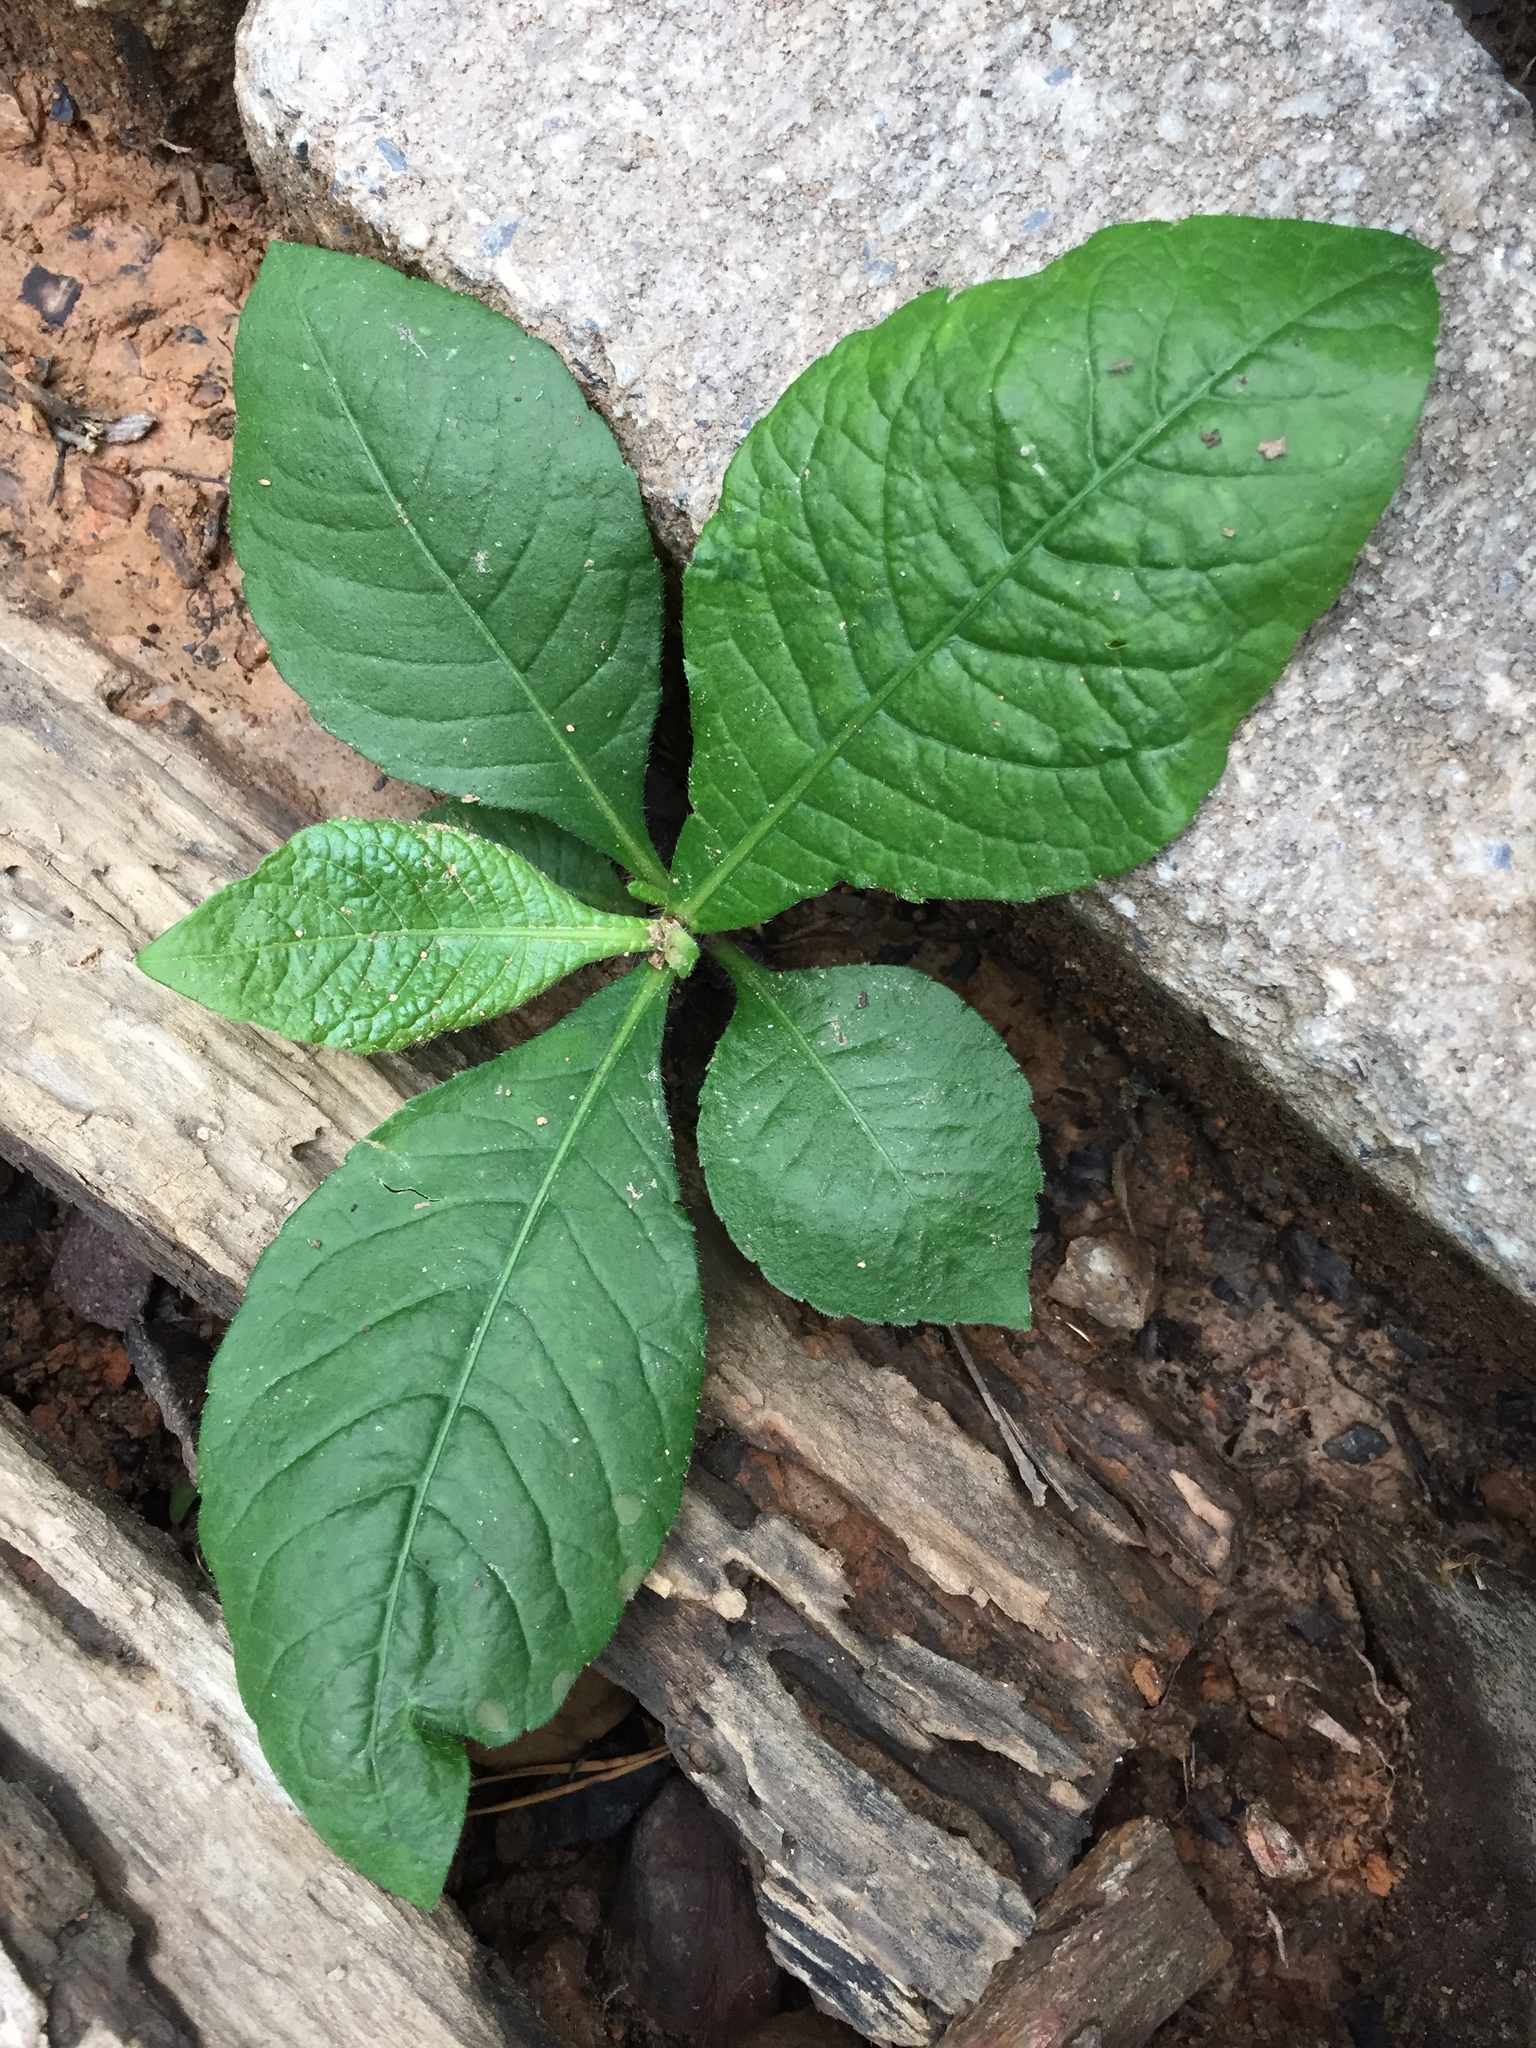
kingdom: Plantae
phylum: Tracheophyta
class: Magnoliopsida
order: Asterales
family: Asteraceae
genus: Elephantopus
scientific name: Elephantopus carolinianus
